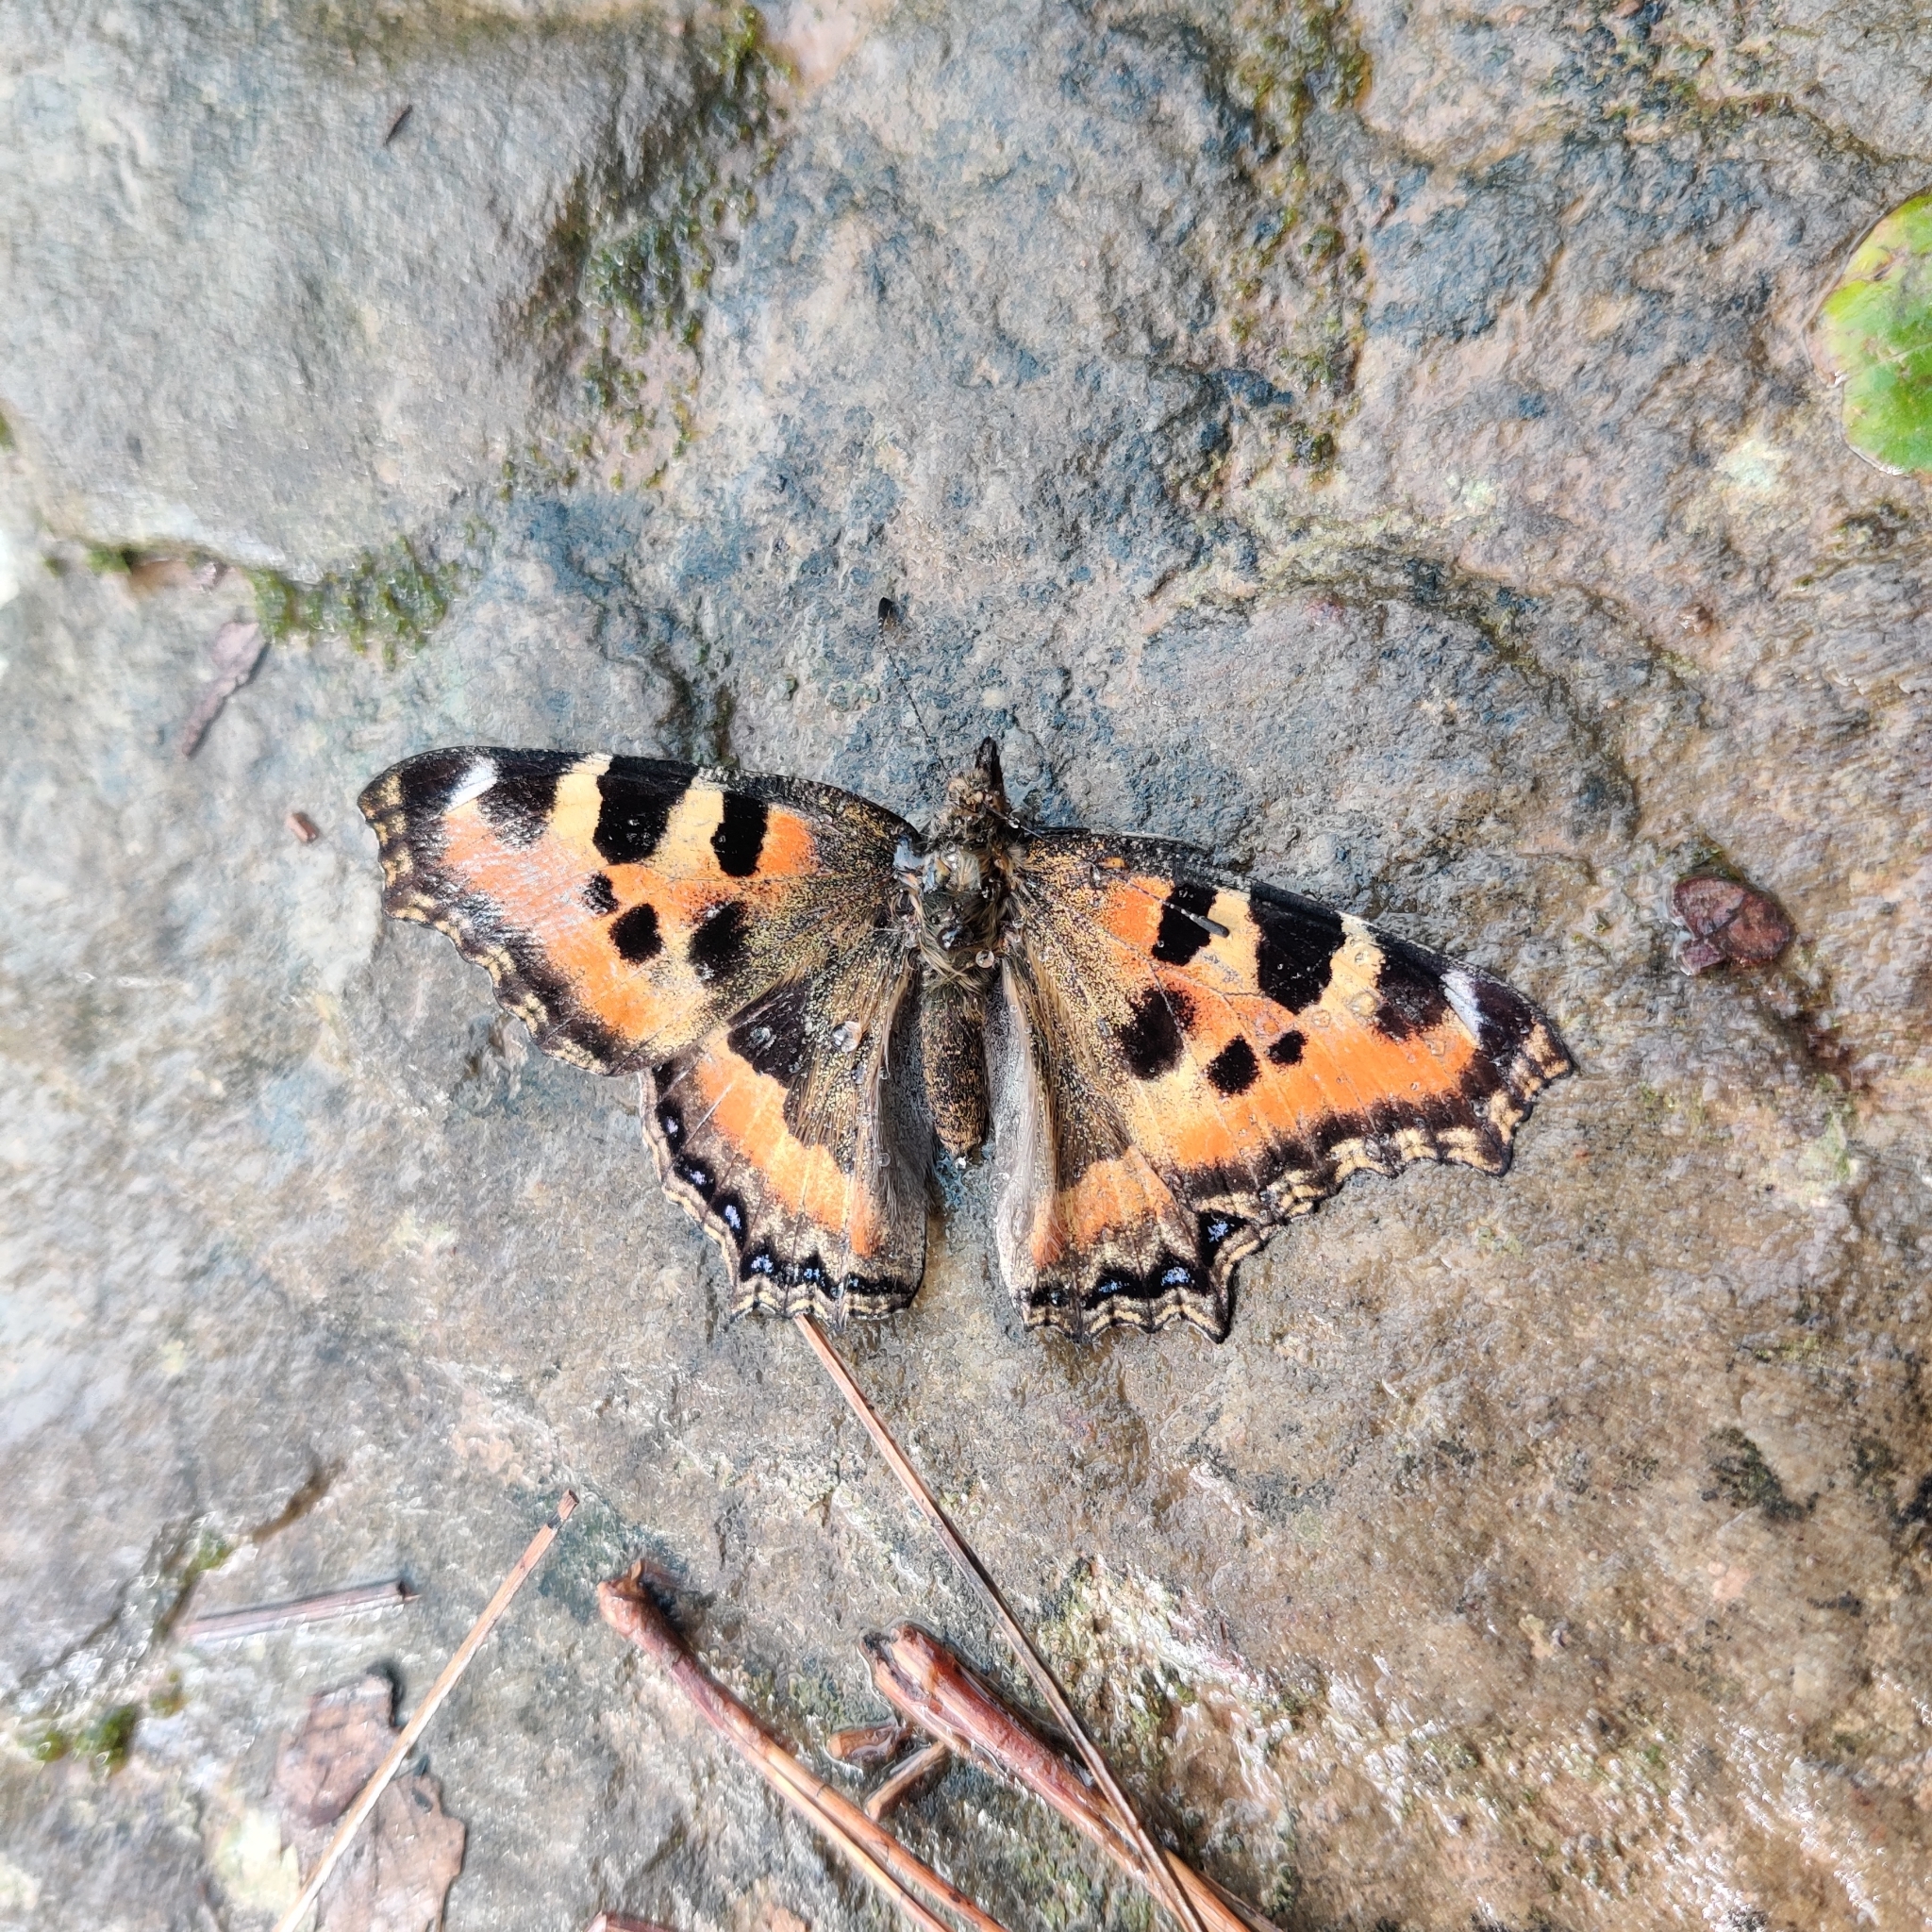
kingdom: Animalia
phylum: Arthropoda
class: Insecta
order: Lepidoptera
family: Nymphalidae
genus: Aglais
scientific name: Aglais caschmirensis
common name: Indian tortoiseshell
